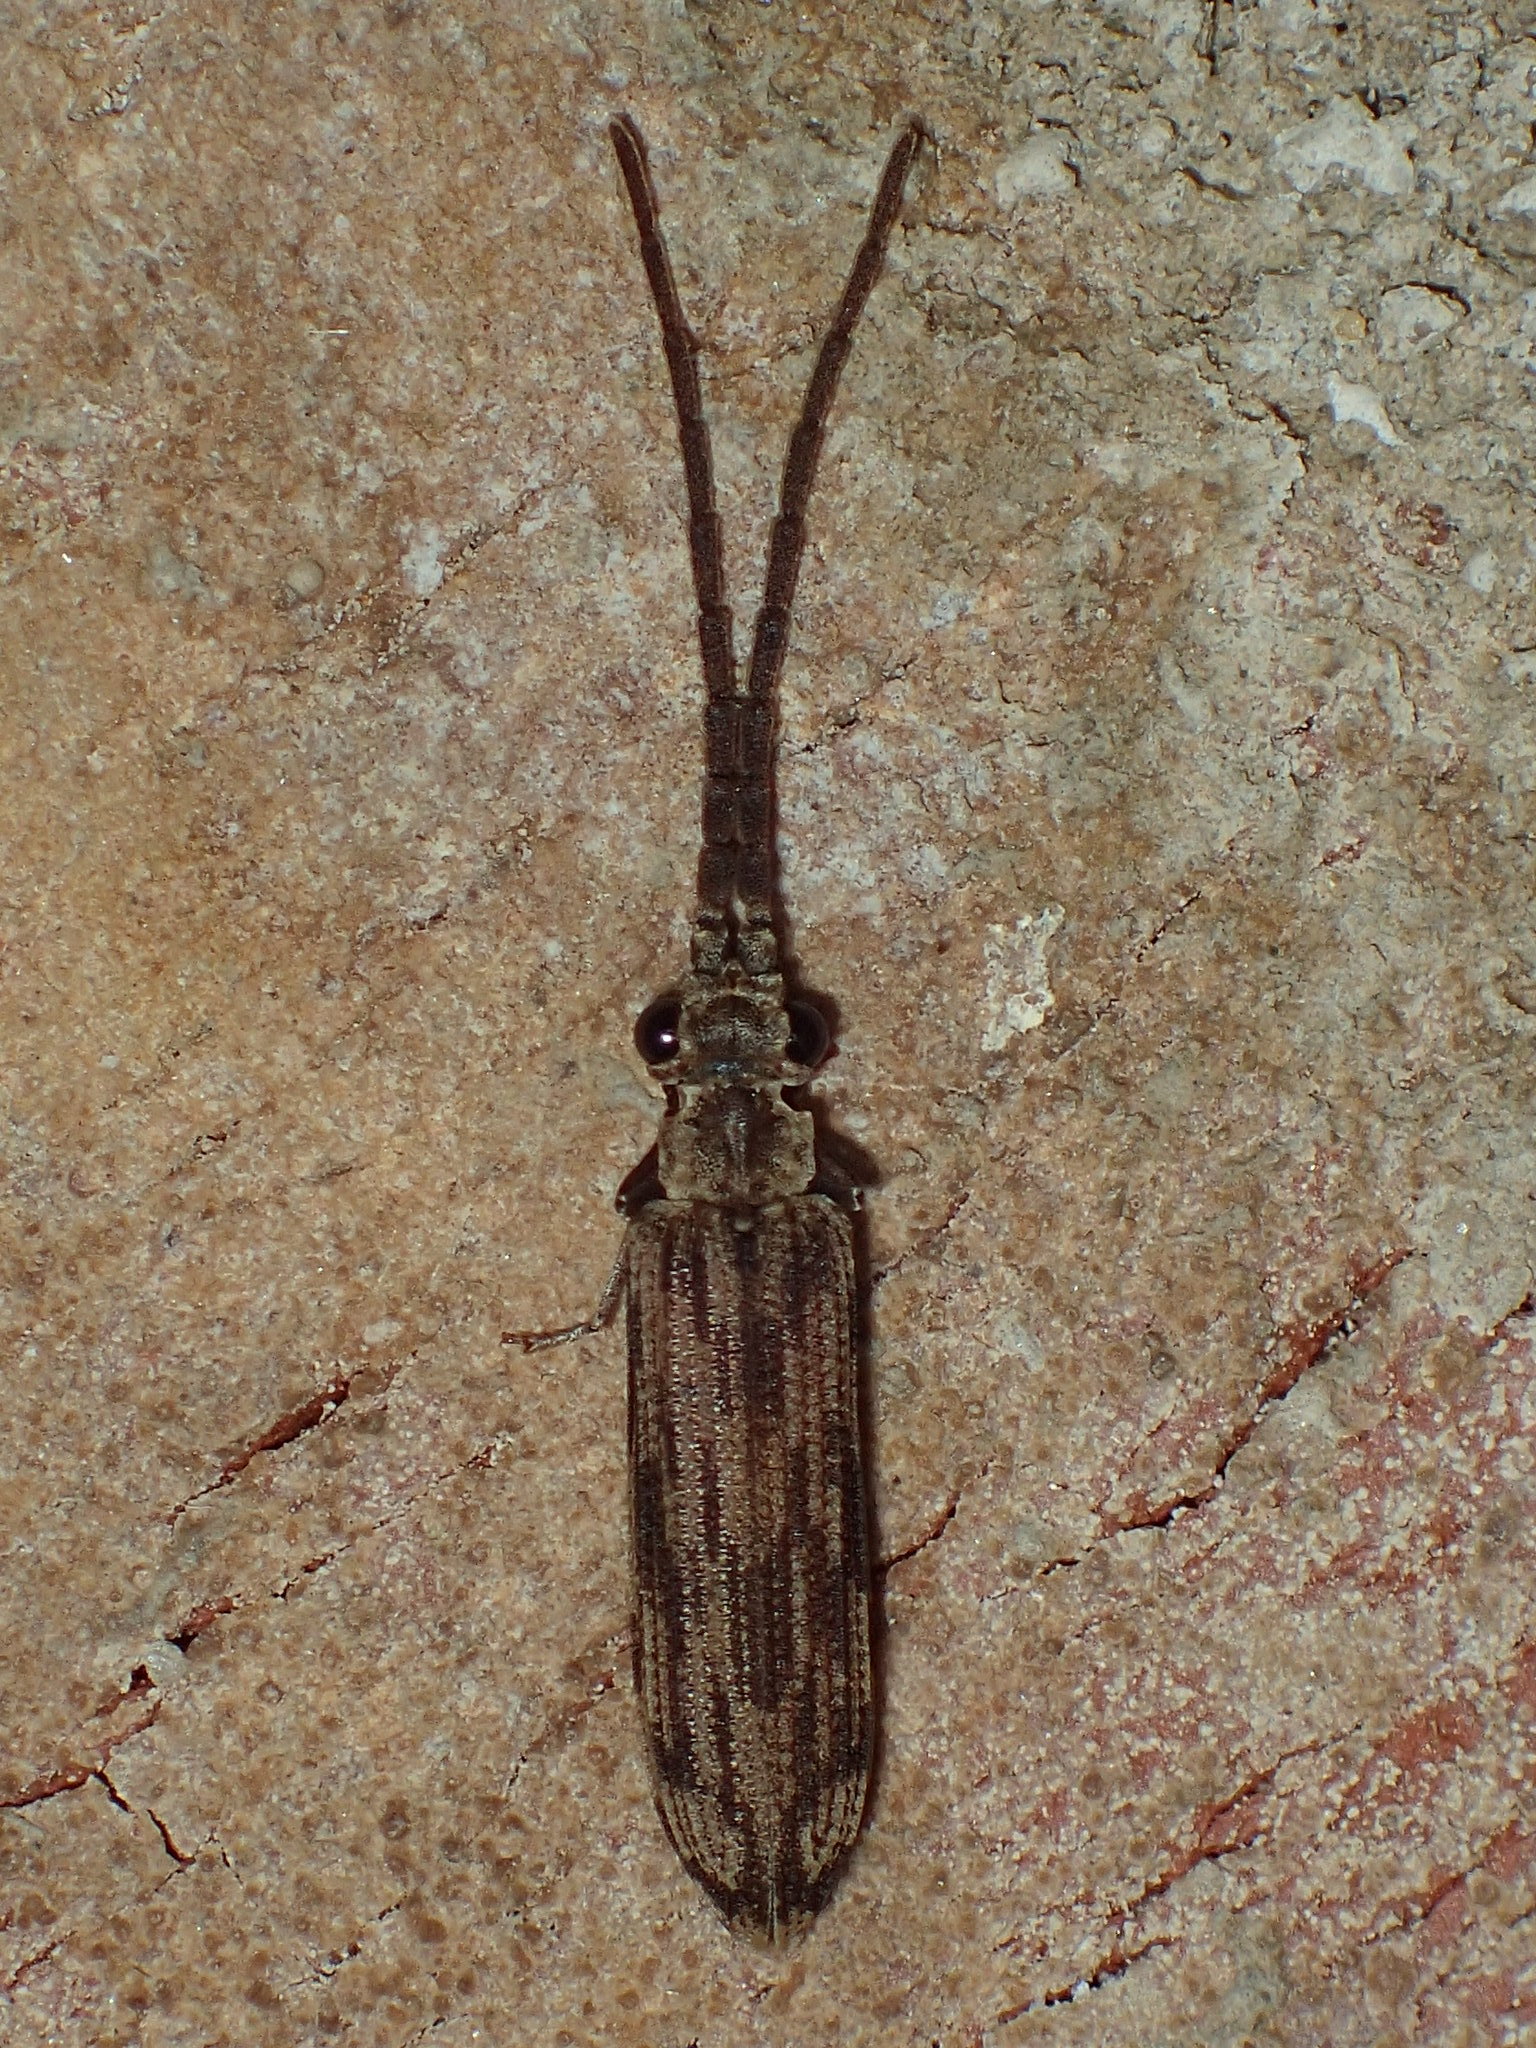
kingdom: Animalia
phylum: Arthropoda
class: Insecta
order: Coleoptera
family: Cupedidae
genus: Tenomerga
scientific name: Tenomerga cinerea
